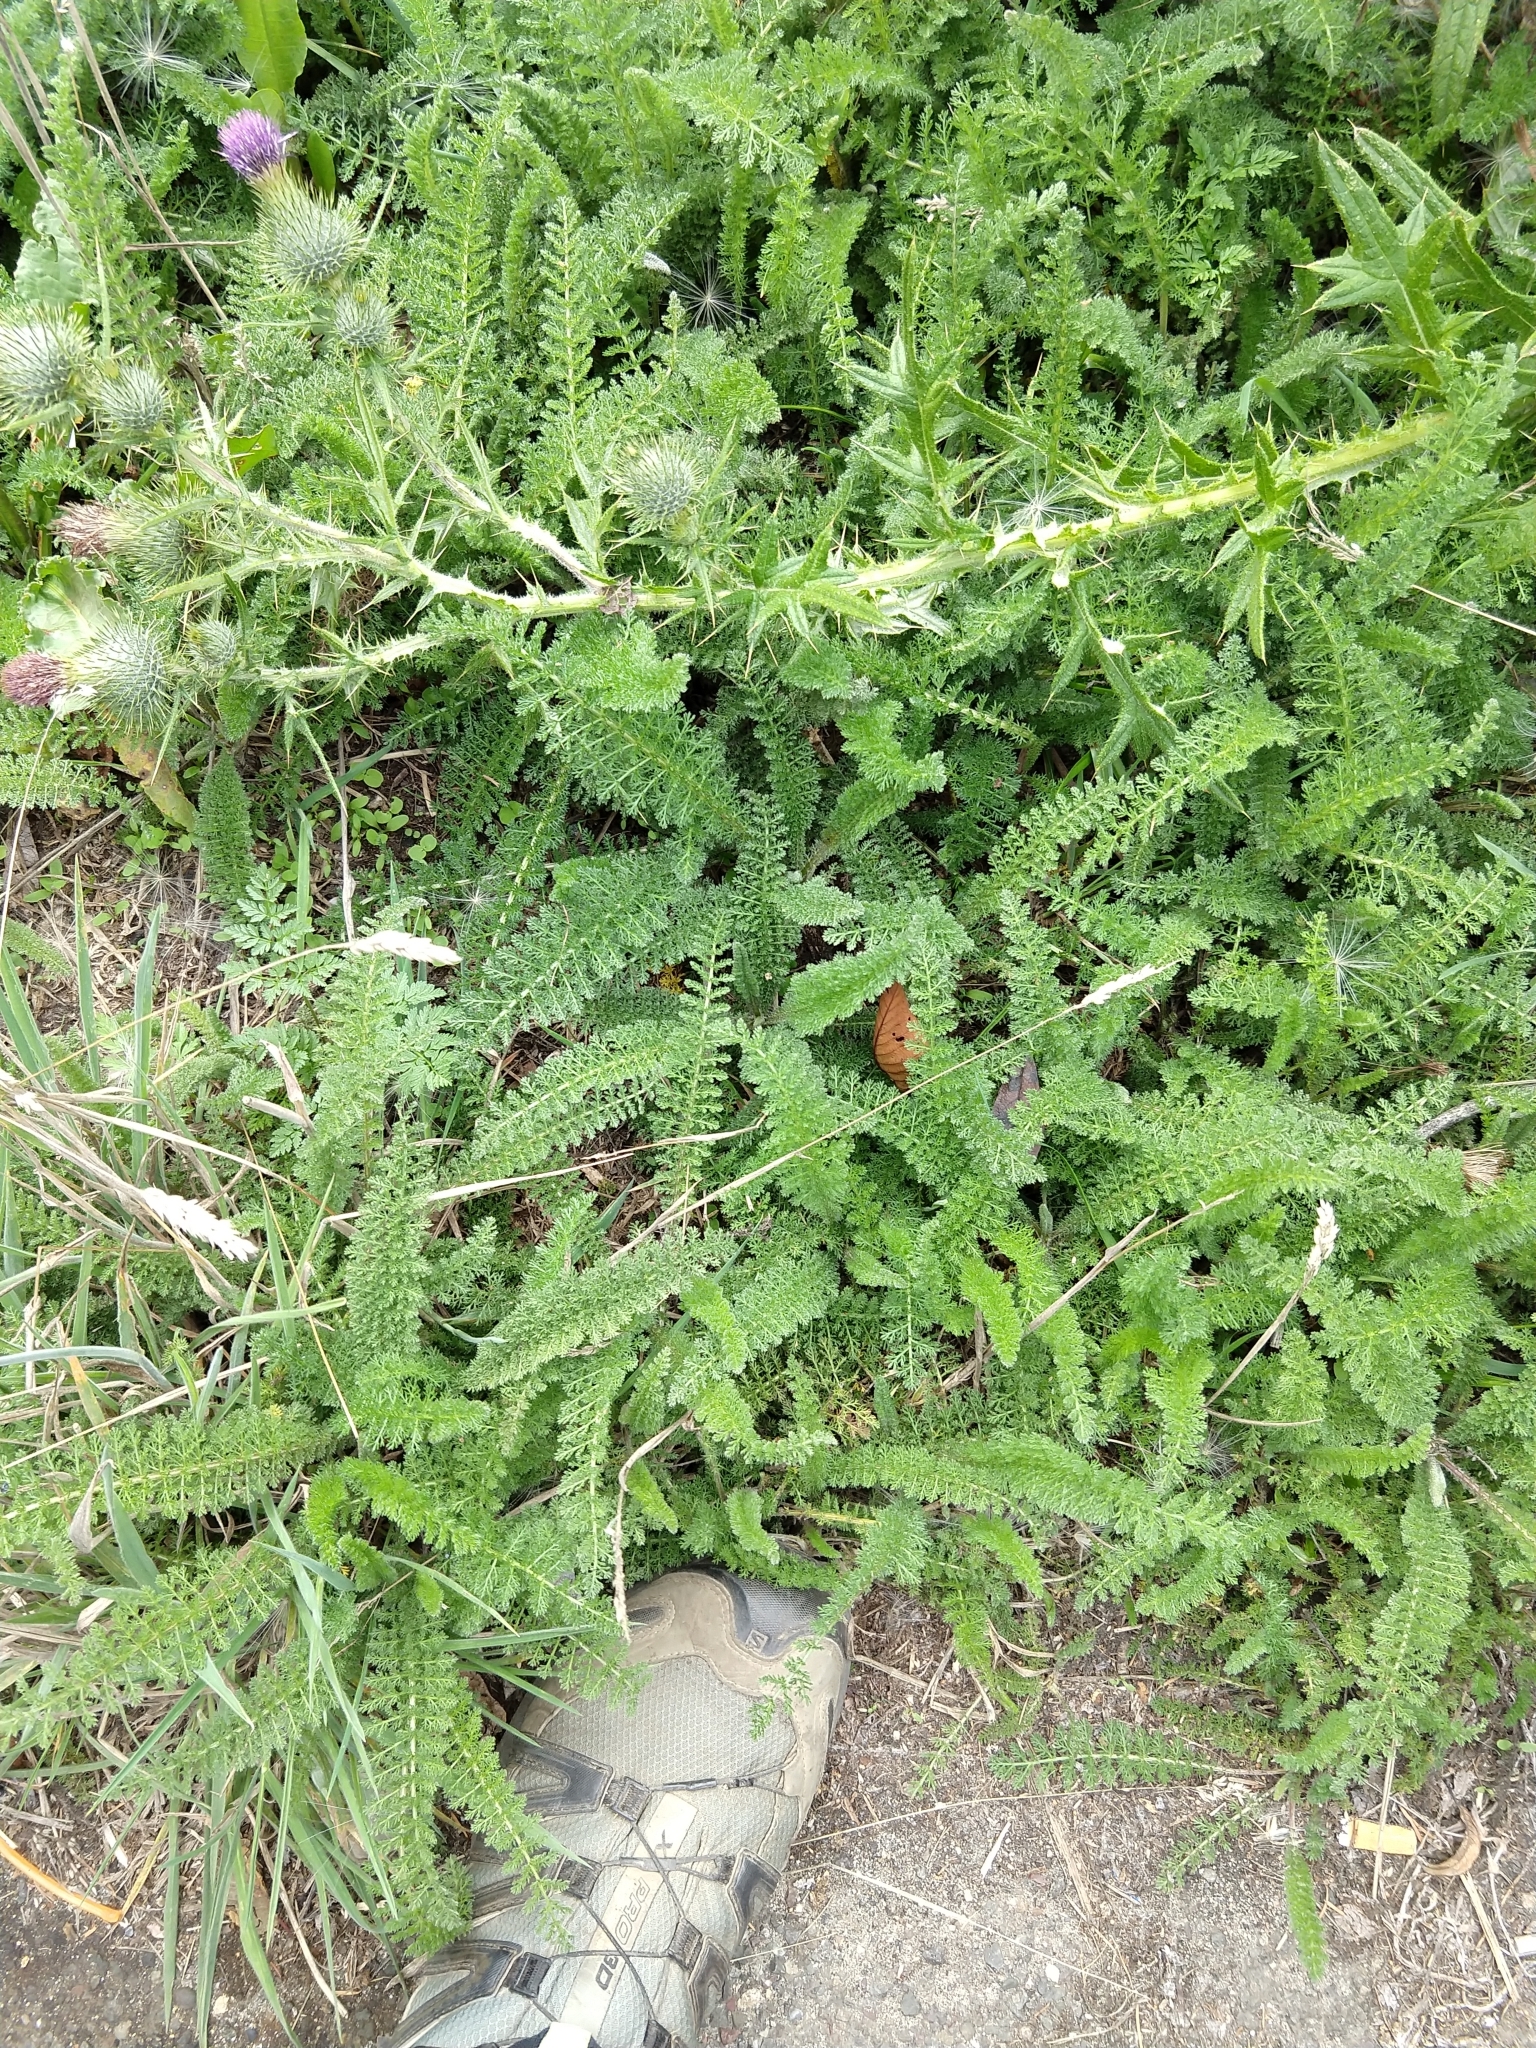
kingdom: Plantae
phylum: Tracheophyta
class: Magnoliopsida
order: Asterales
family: Asteraceae
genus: Achillea
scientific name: Achillea millefolium
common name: Yarrow
